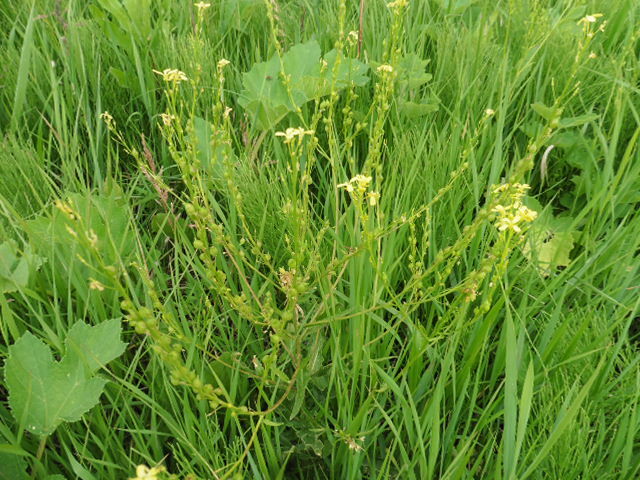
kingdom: Plantae
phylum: Tracheophyta
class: Magnoliopsida
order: Brassicales
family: Brassicaceae
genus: Bunias
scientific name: Bunias orientalis
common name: Warty-cabbage
